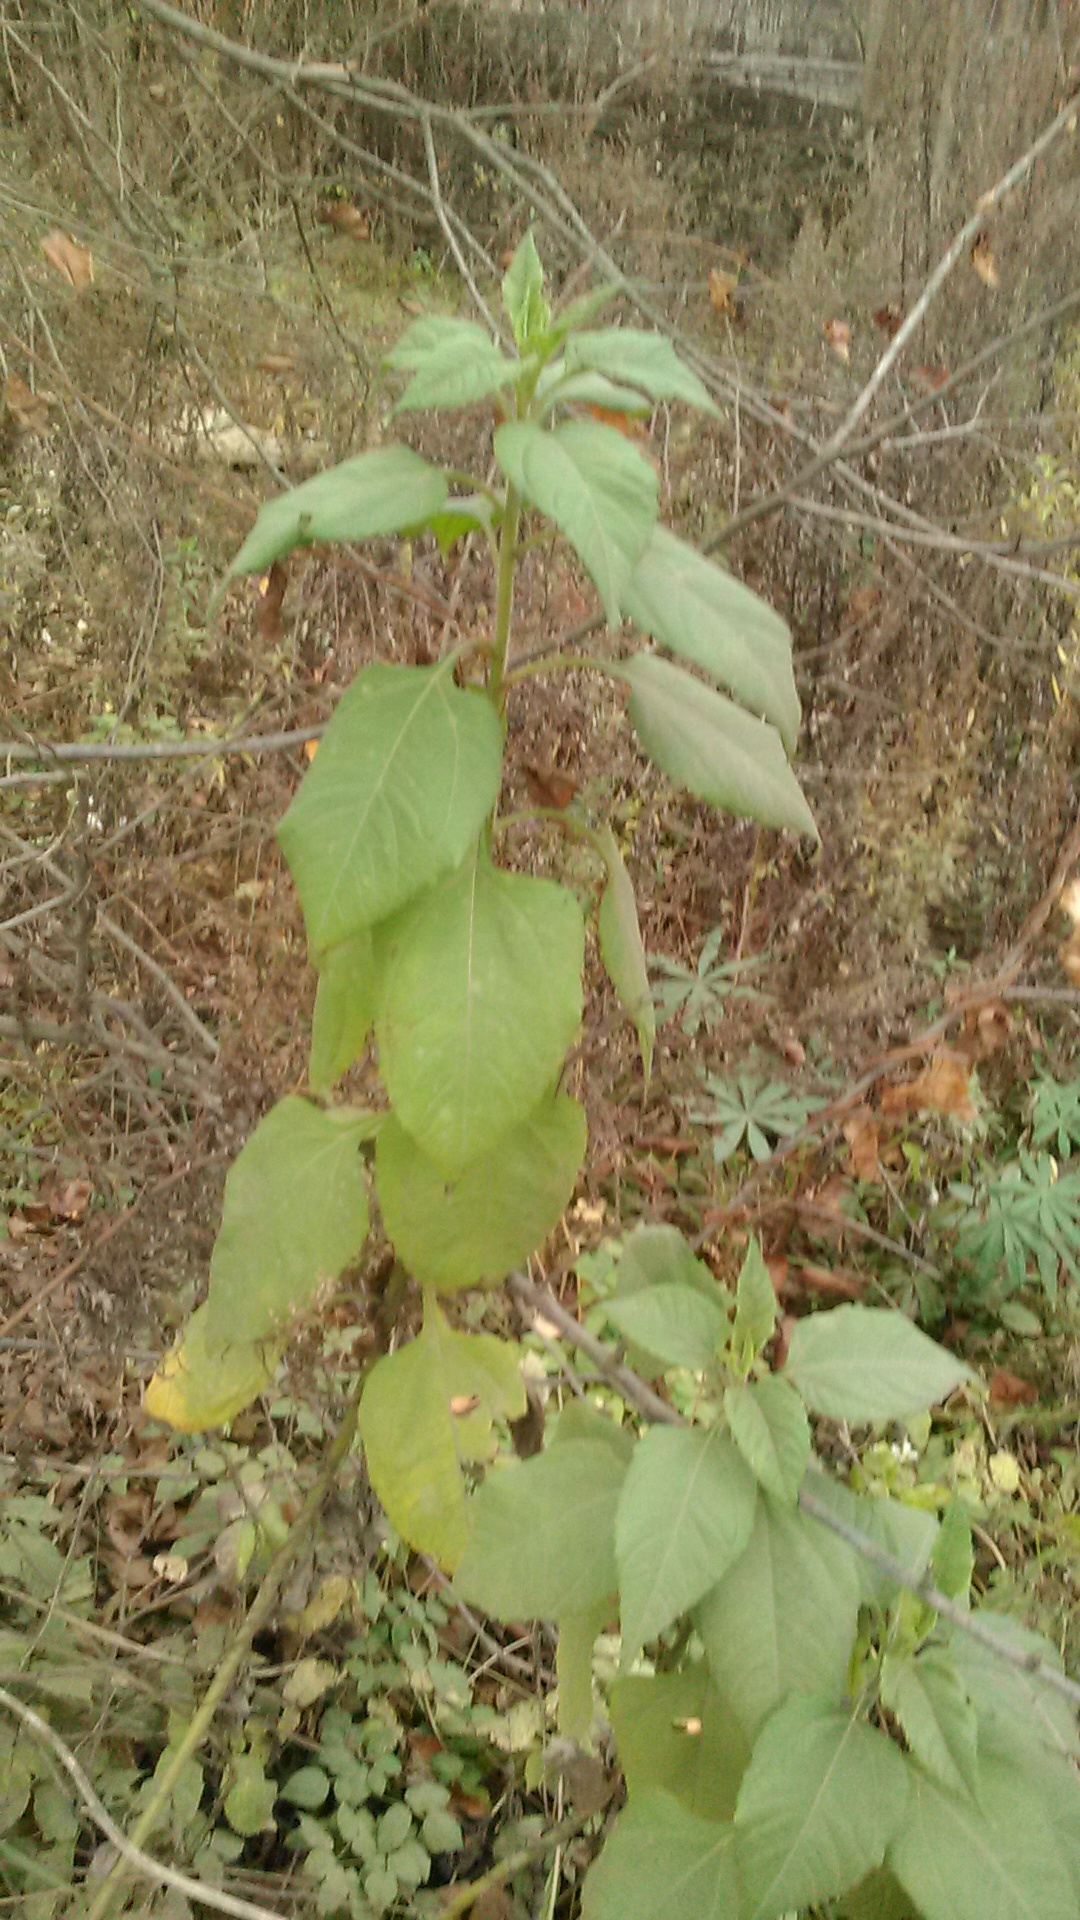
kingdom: Plantae
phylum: Tracheophyta
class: Magnoliopsida
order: Asterales
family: Asteraceae
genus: Helianthus
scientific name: Helianthus tuberosus
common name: Jerusalem artichoke
